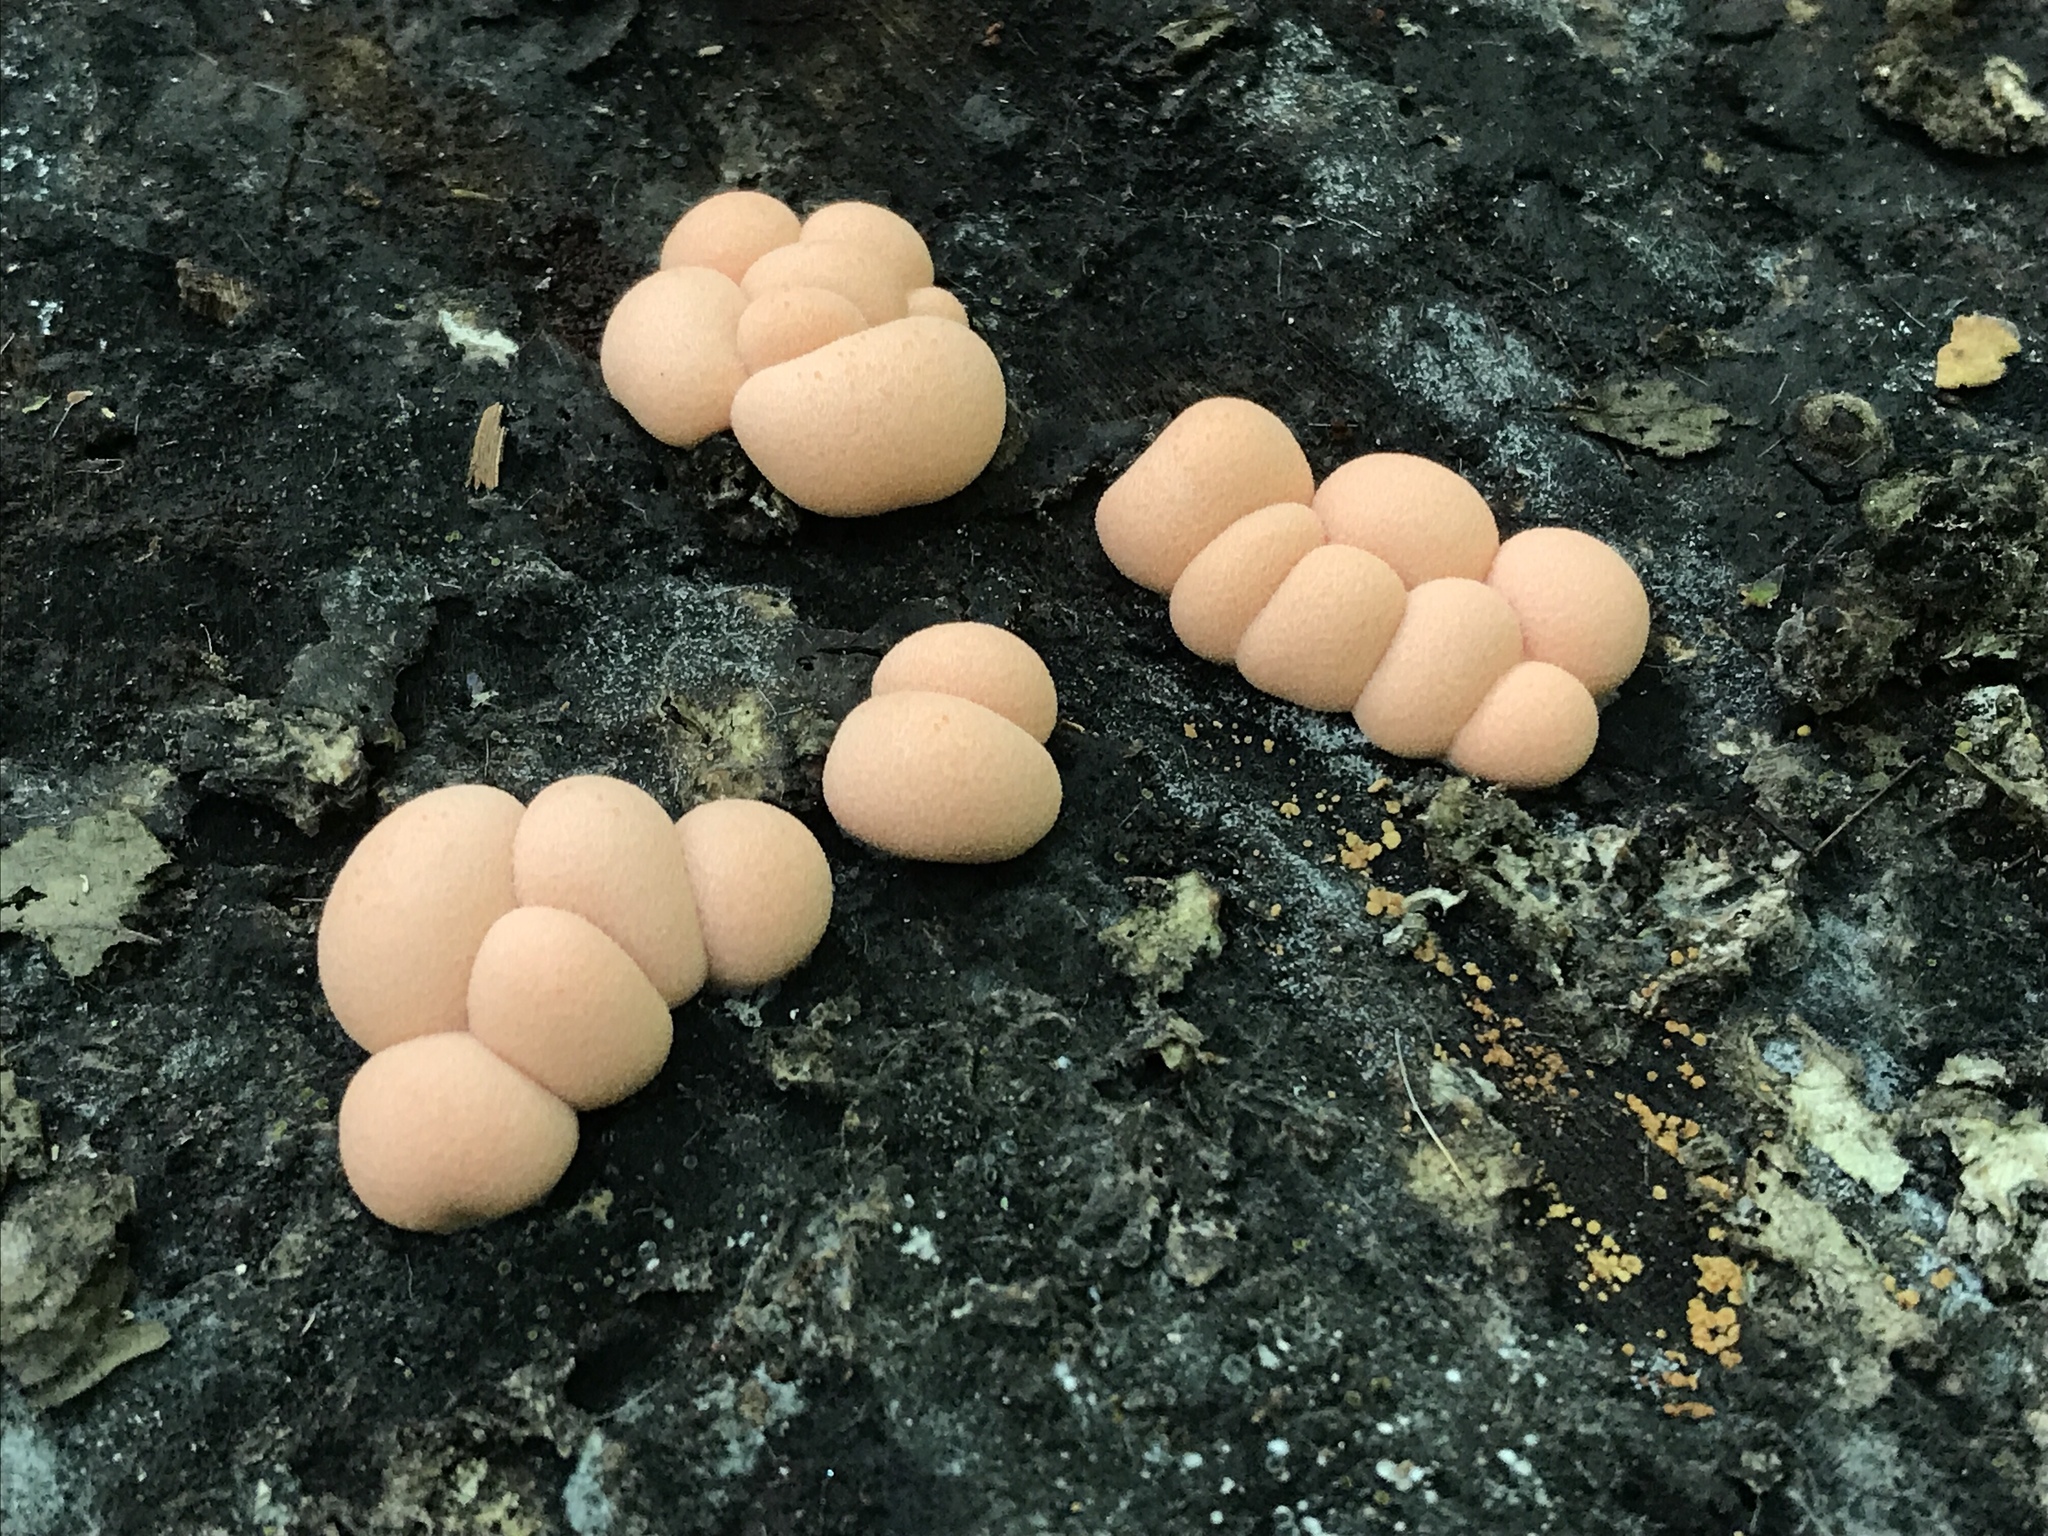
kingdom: Protozoa
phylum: Mycetozoa
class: Myxomycetes
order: Cribrariales
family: Tubiferaceae
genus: Lycogala
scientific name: Lycogala epidendrum
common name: Wolf's milk
